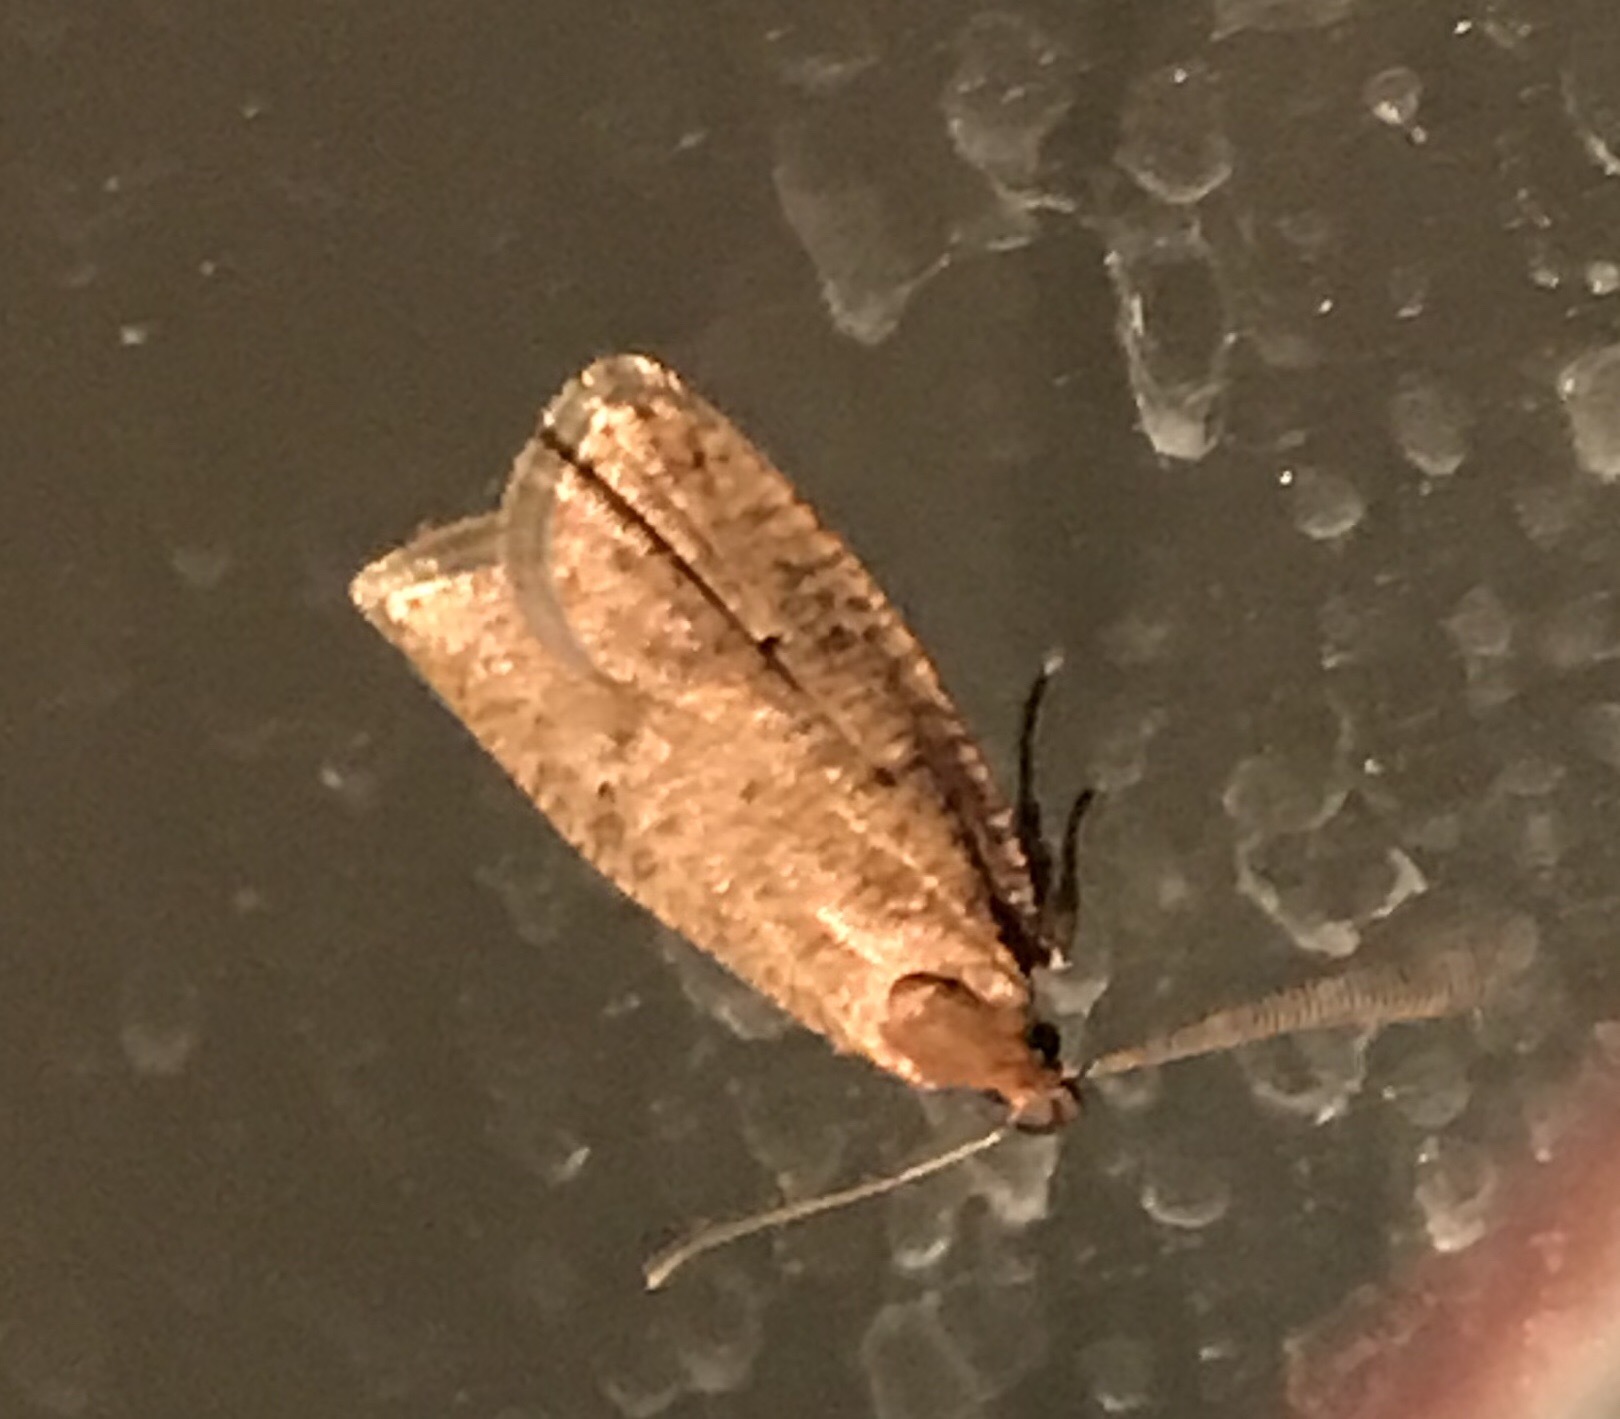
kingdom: Animalia
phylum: Arthropoda
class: Insecta
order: Lepidoptera
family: Depressariidae
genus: Psilocorsis
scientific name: Psilocorsis reflexella
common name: Dotted leaftier moth
